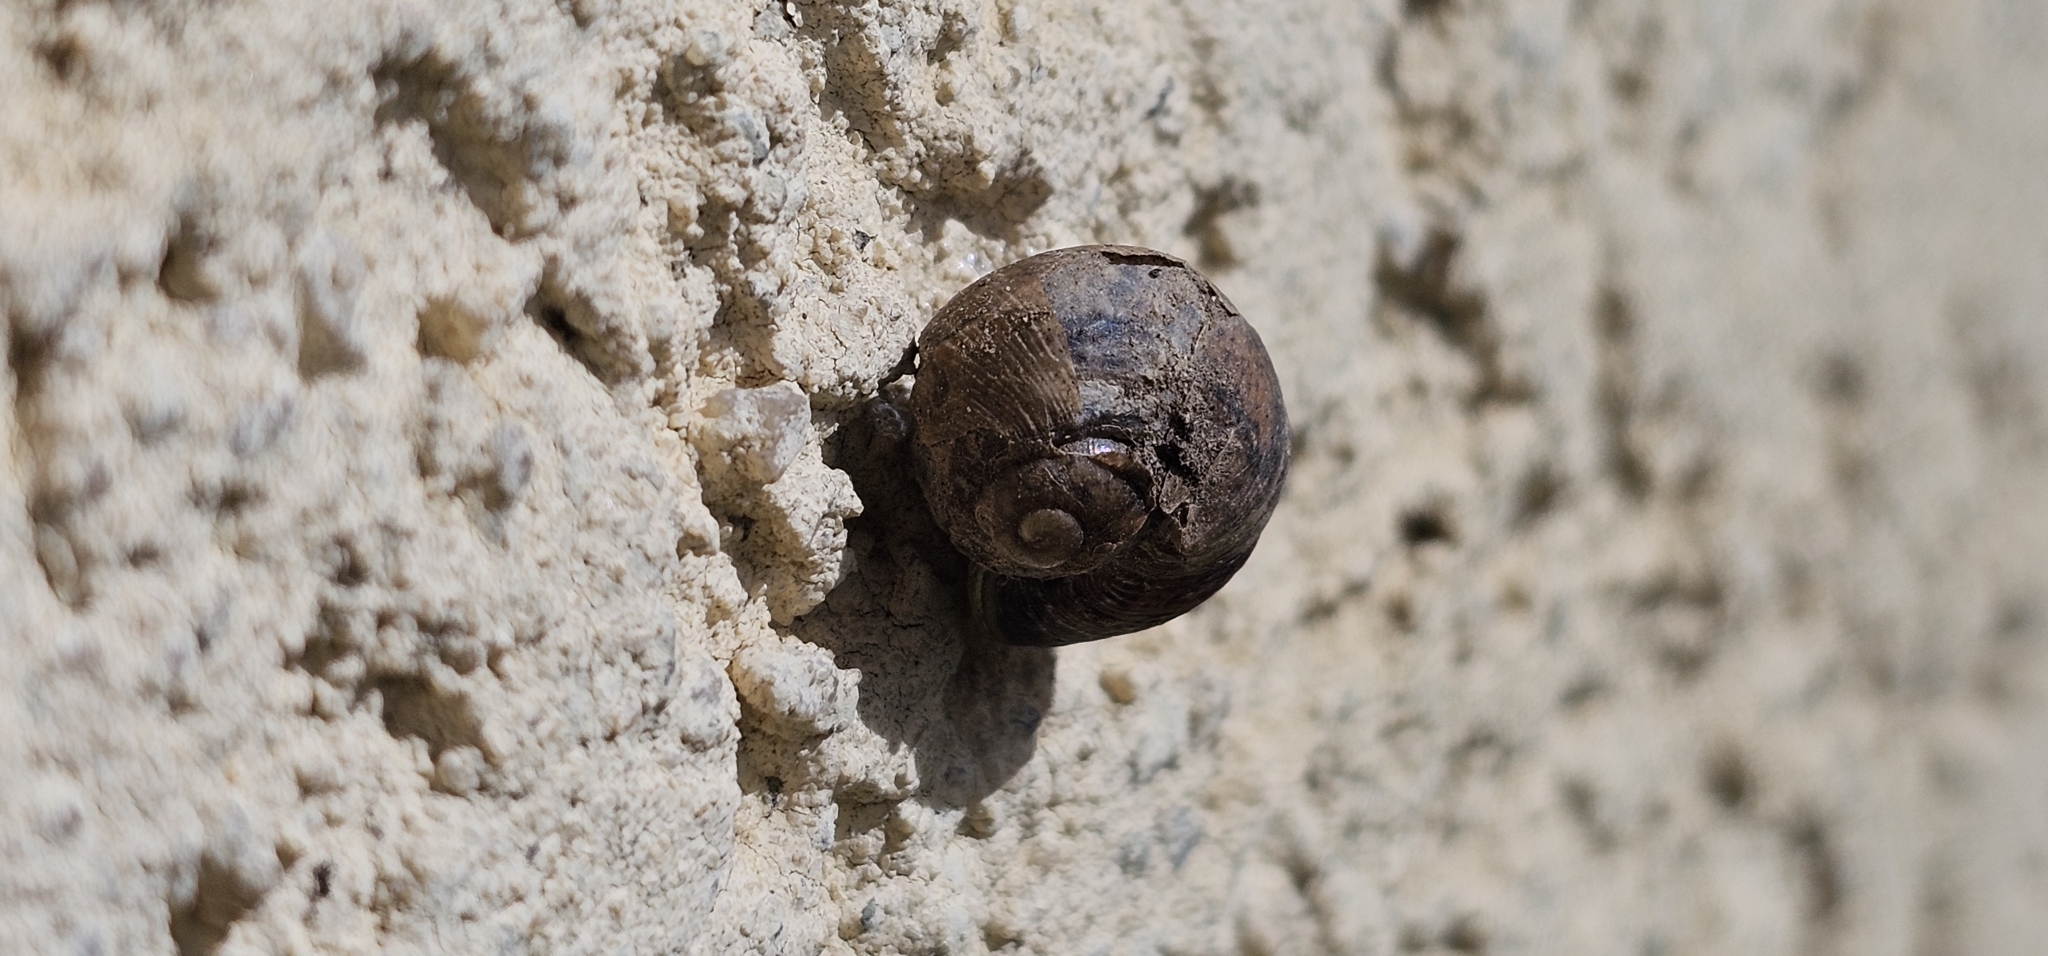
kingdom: Animalia
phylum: Mollusca
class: Gastropoda
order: Stylommatophora
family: Helicidae
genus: Cornu
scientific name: Cornu aspersum
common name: Brown garden snail
